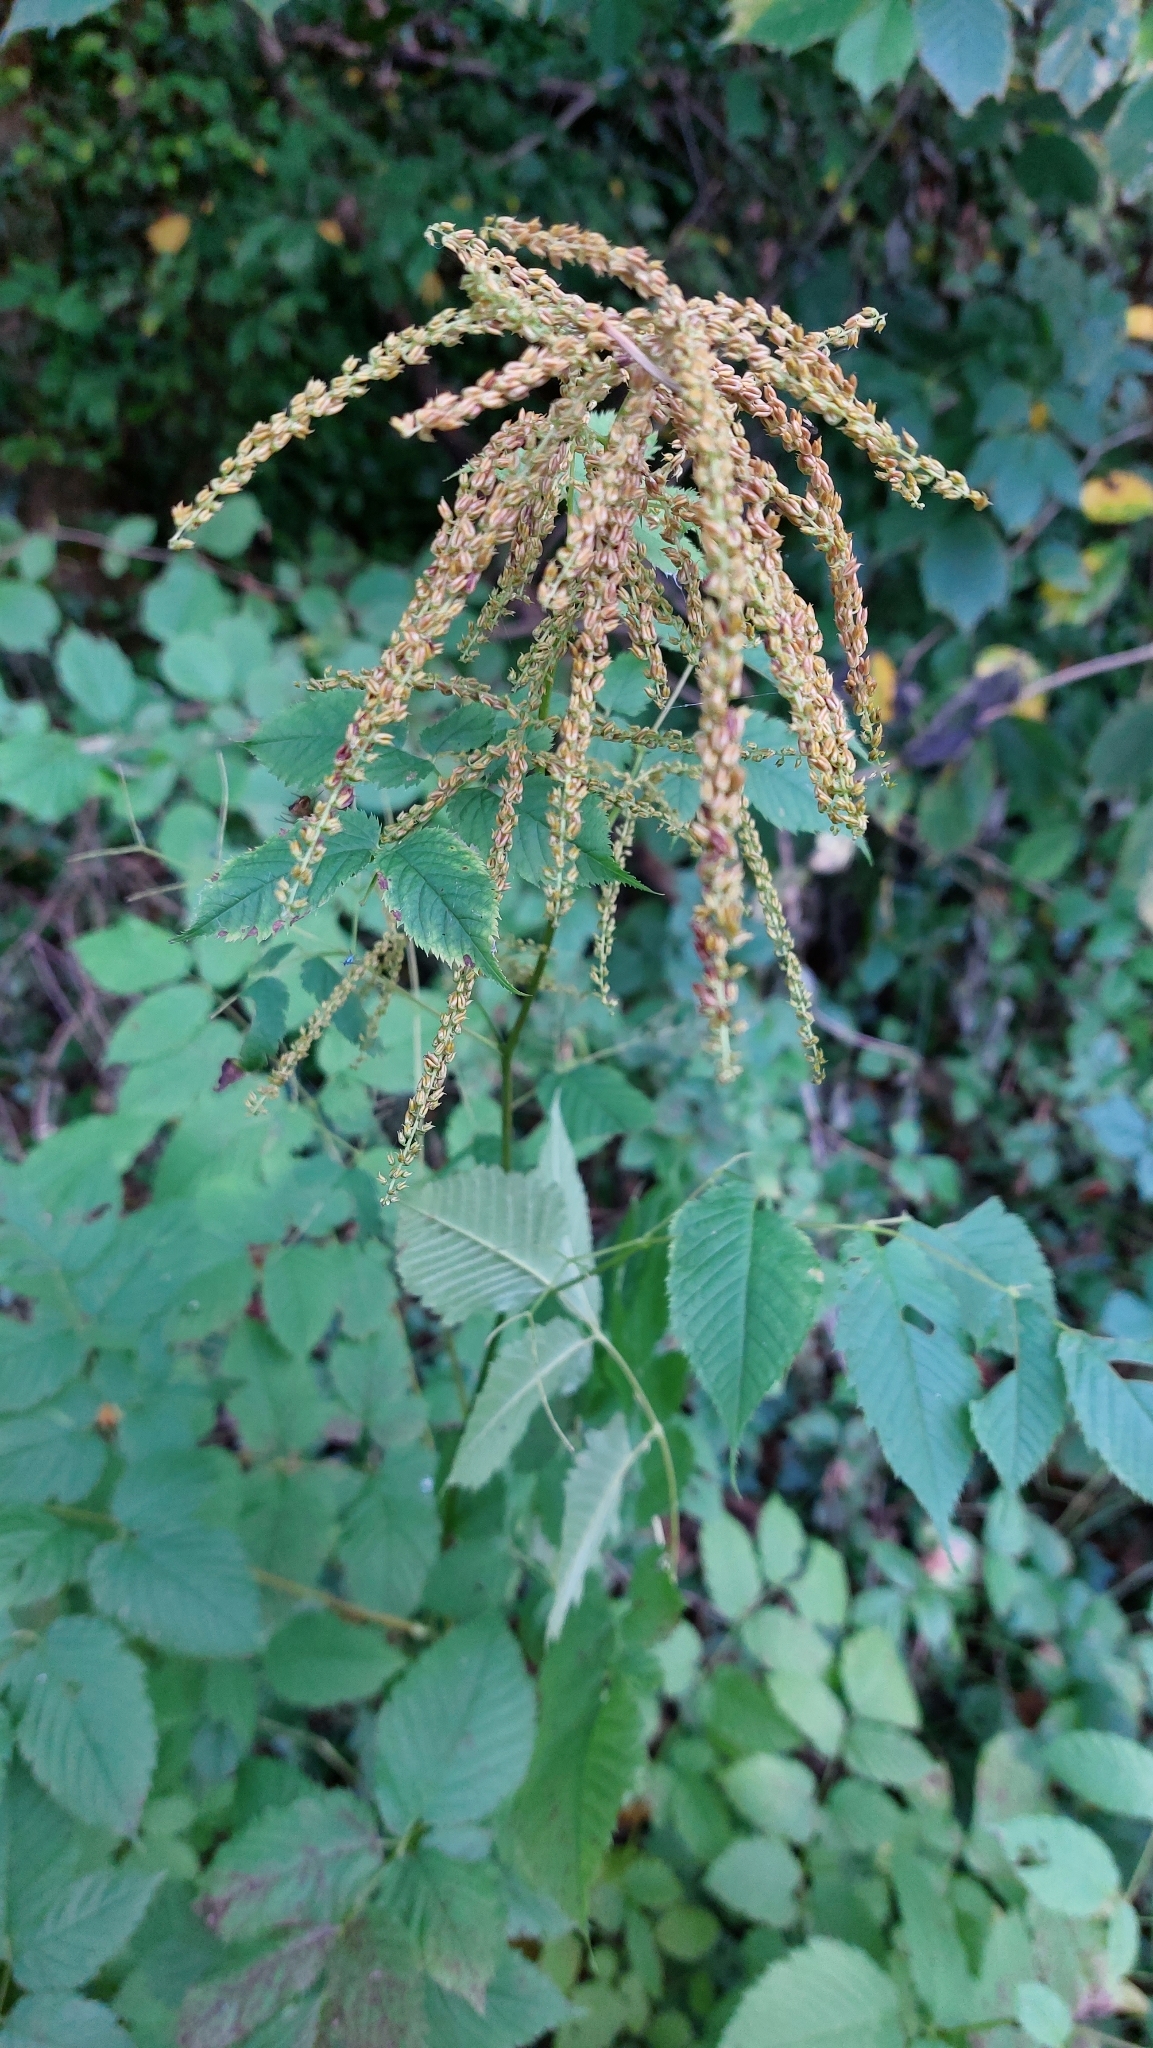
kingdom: Plantae
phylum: Tracheophyta
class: Magnoliopsida
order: Rosales
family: Rosaceae
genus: Aruncus
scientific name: Aruncus dioicus
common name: Buck's-beard
